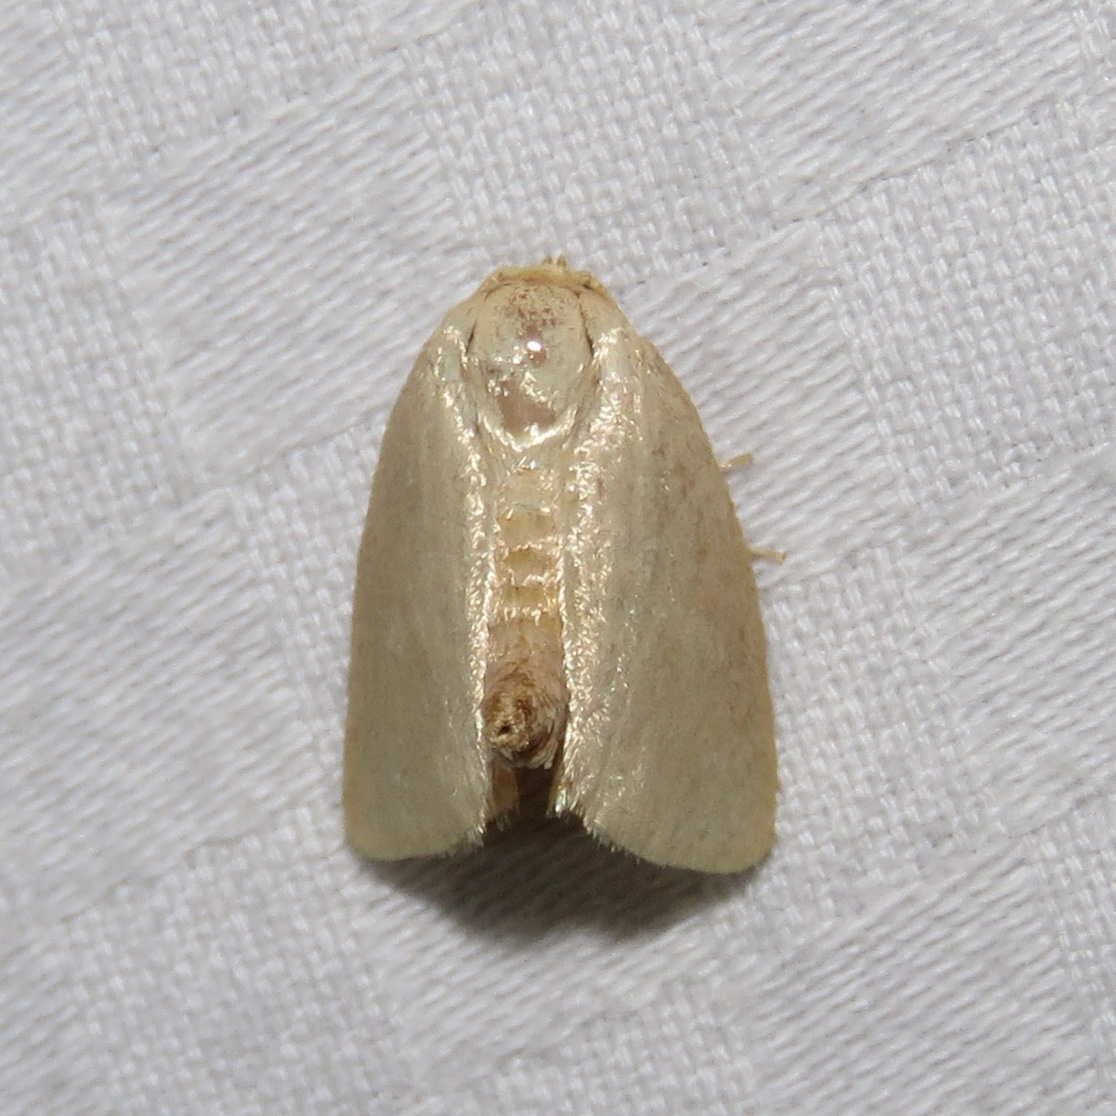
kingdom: Animalia
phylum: Arthropoda
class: Insecta
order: Lepidoptera
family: Limacodidae
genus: Tortricidia
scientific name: Tortricidia pallida
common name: Red-crossed button slug moth
